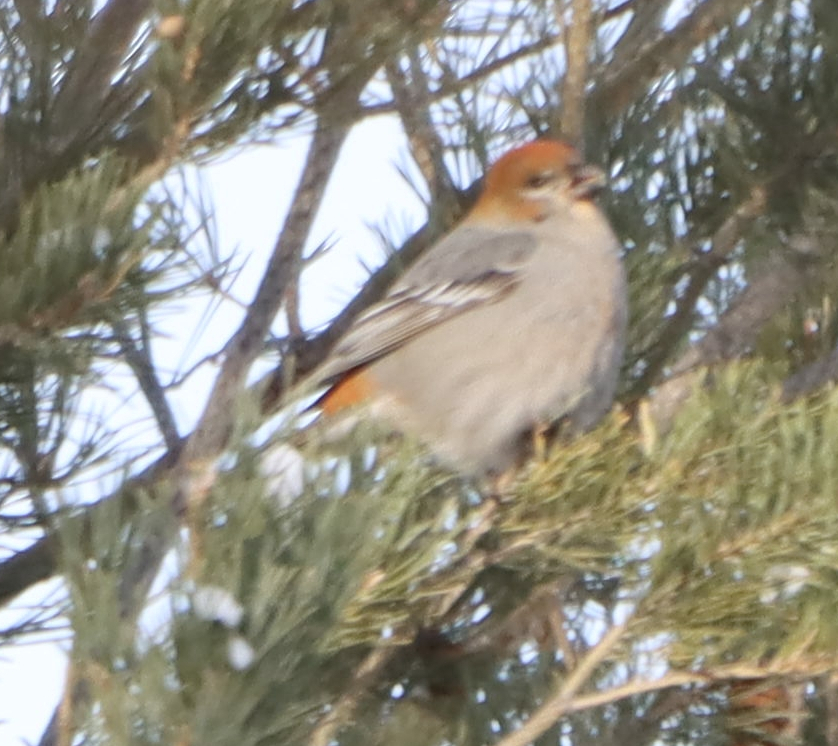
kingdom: Animalia
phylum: Chordata
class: Aves
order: Passeriformes
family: Fringillidae
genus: Pinicola
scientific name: Pinicola enucleator
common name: Pine grosbeak
